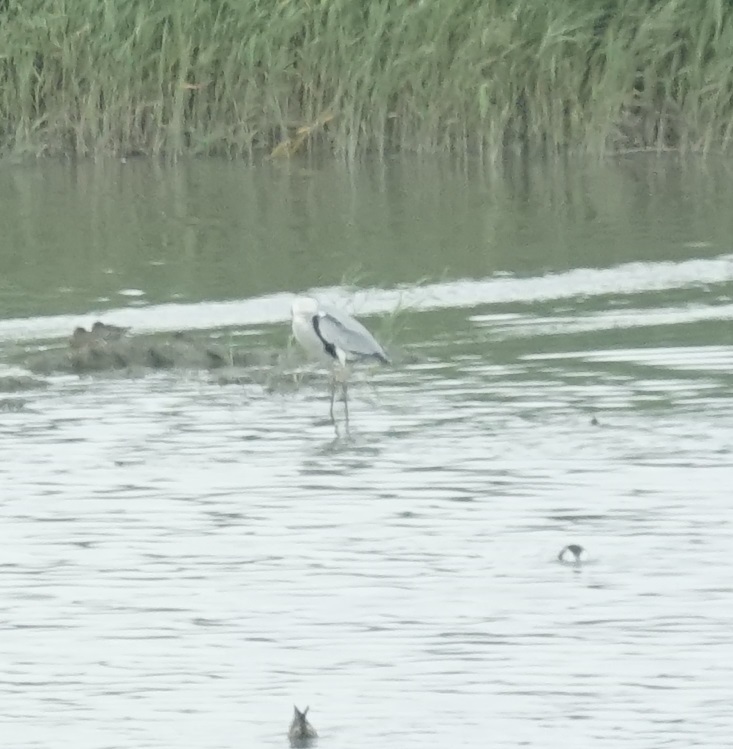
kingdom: Animalia
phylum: Chordata
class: Aves
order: Pelecaniformes
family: Ardeidae
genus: Ardea
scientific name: Ardea cinerea
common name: Grey heron
